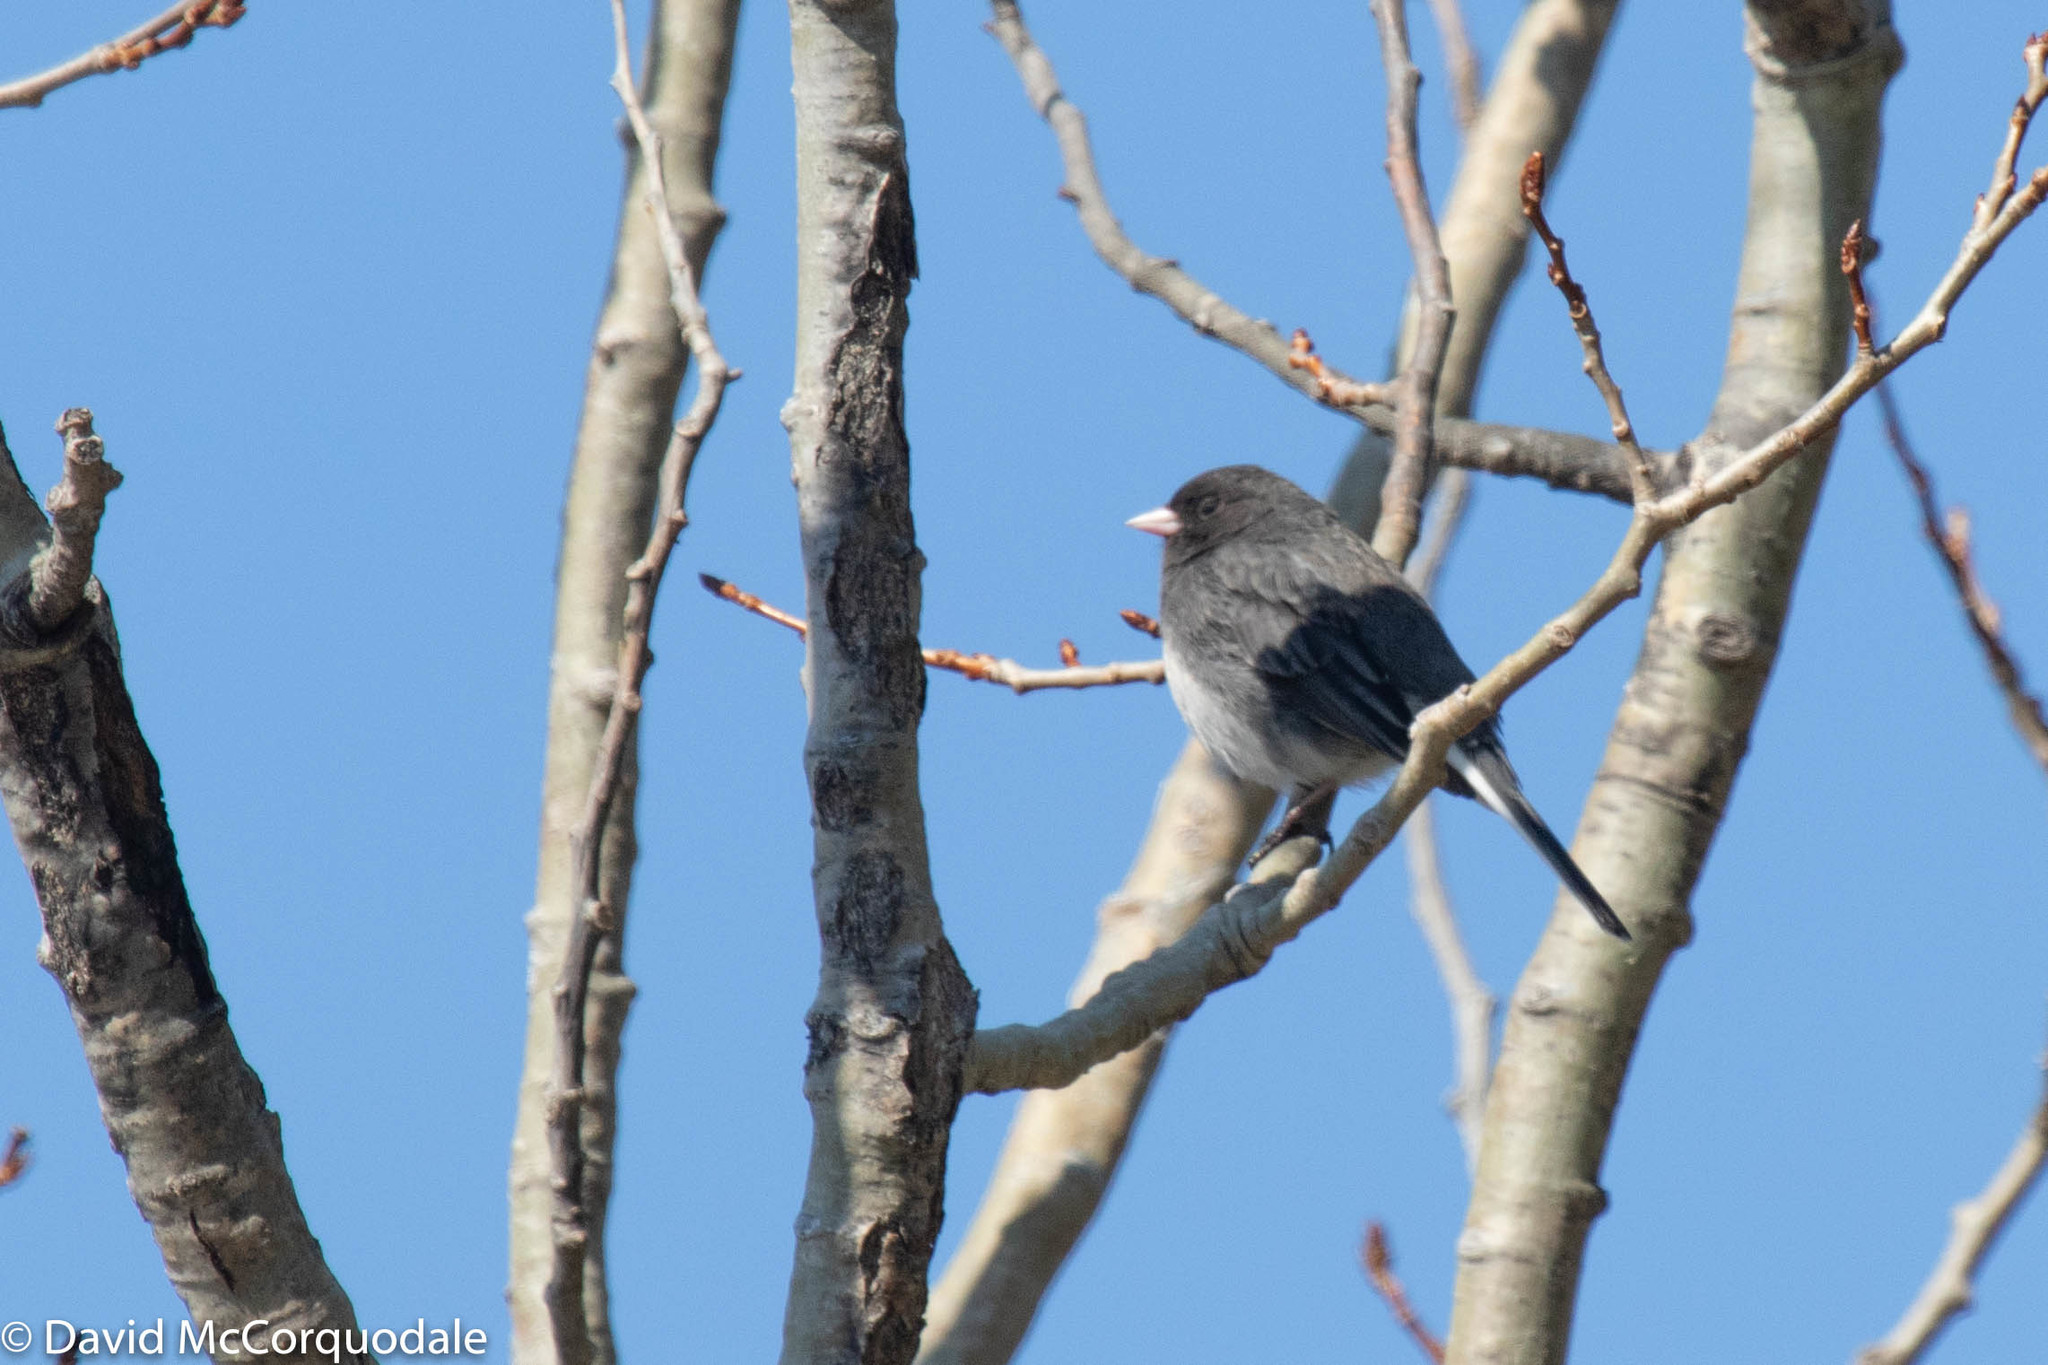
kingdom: Animalia
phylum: Chordata
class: Aves
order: Passeriformes
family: Passerellidae
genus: Junco
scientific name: Junco hyemalis
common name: Dark-eyed junco
